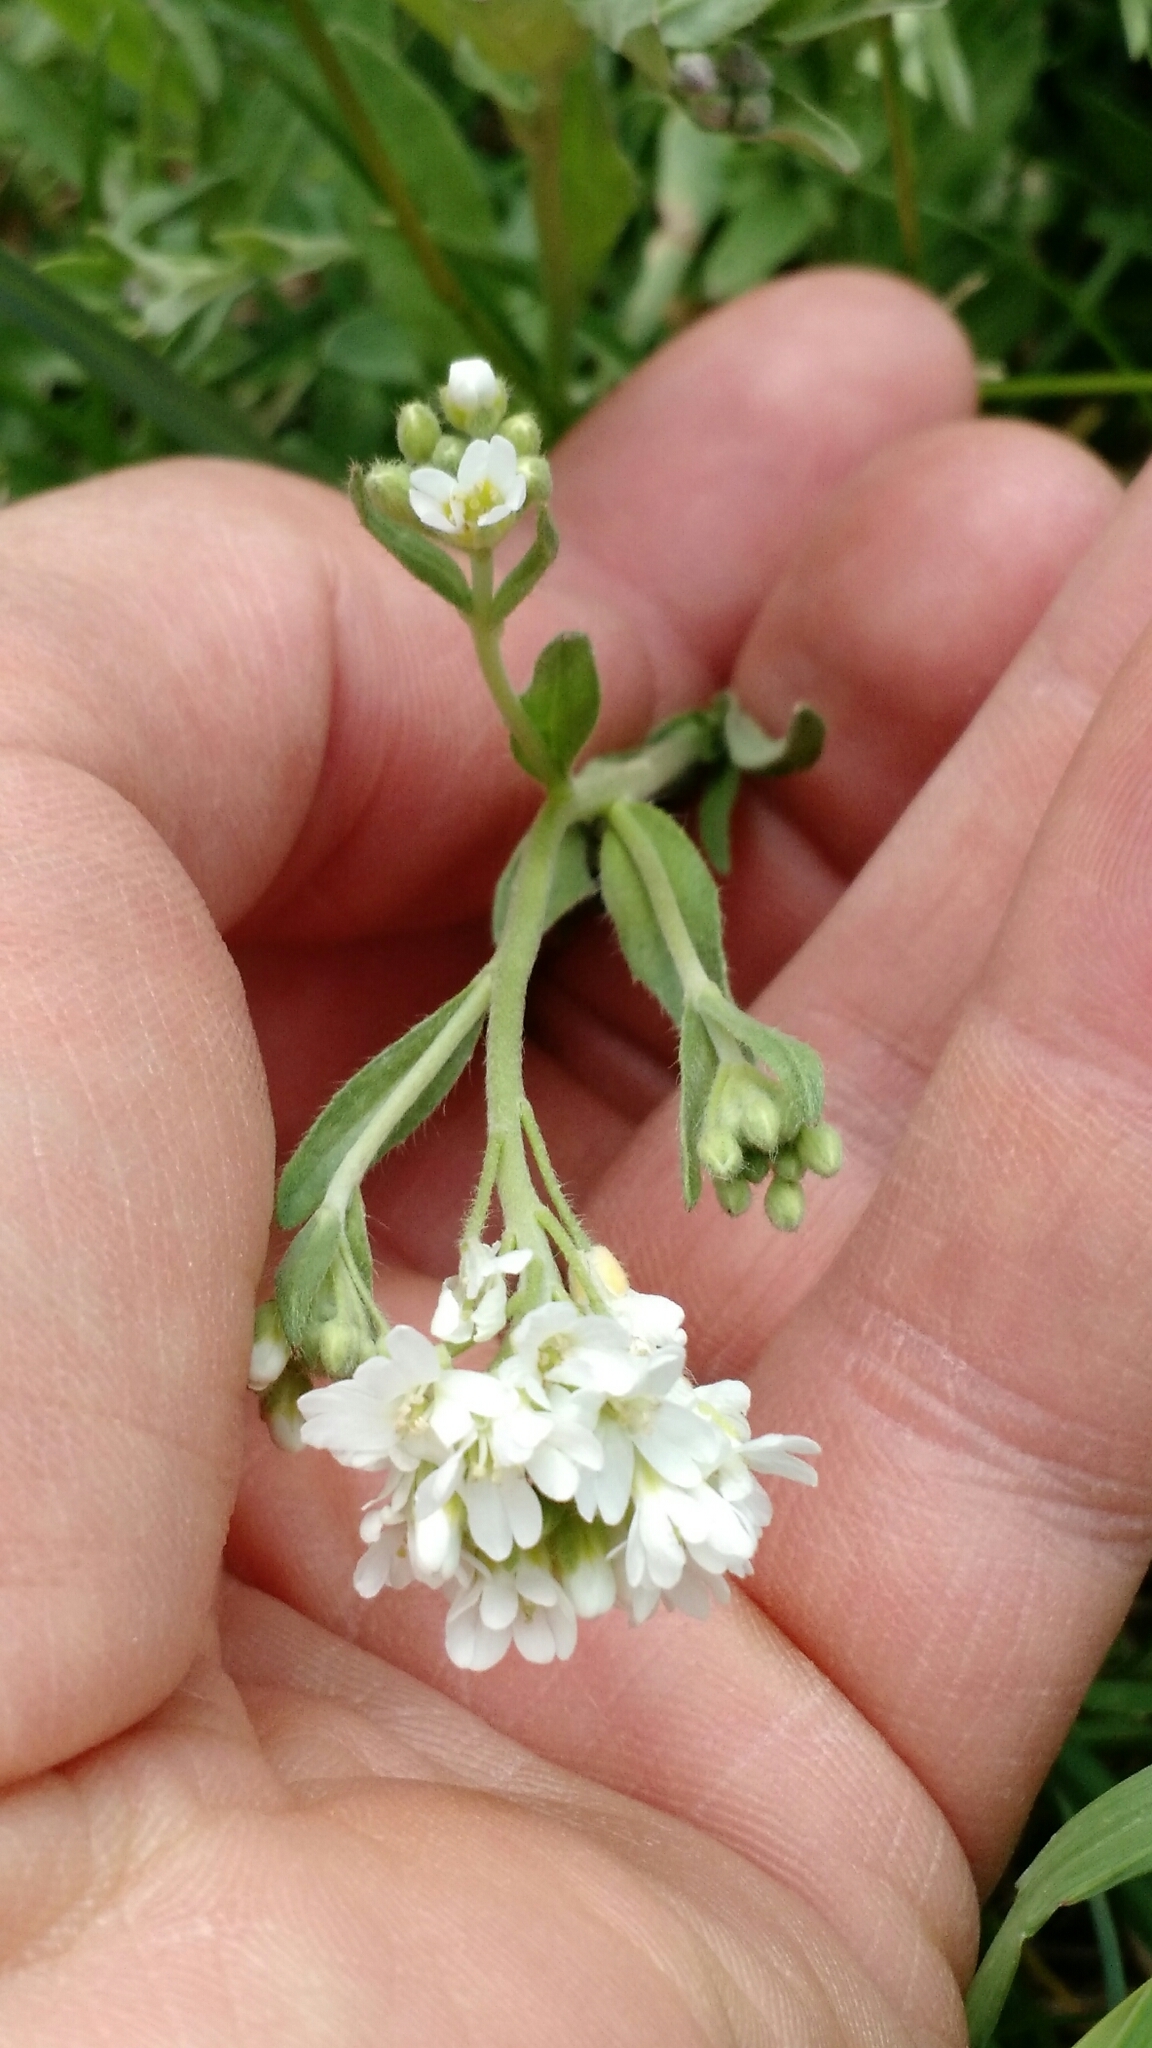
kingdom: Plantae
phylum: Tracheophyta
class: Magnoliopsida
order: Brassicales
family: Brassicaceae
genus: Berteroa
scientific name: Berteroa incana
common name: Hoary alison
